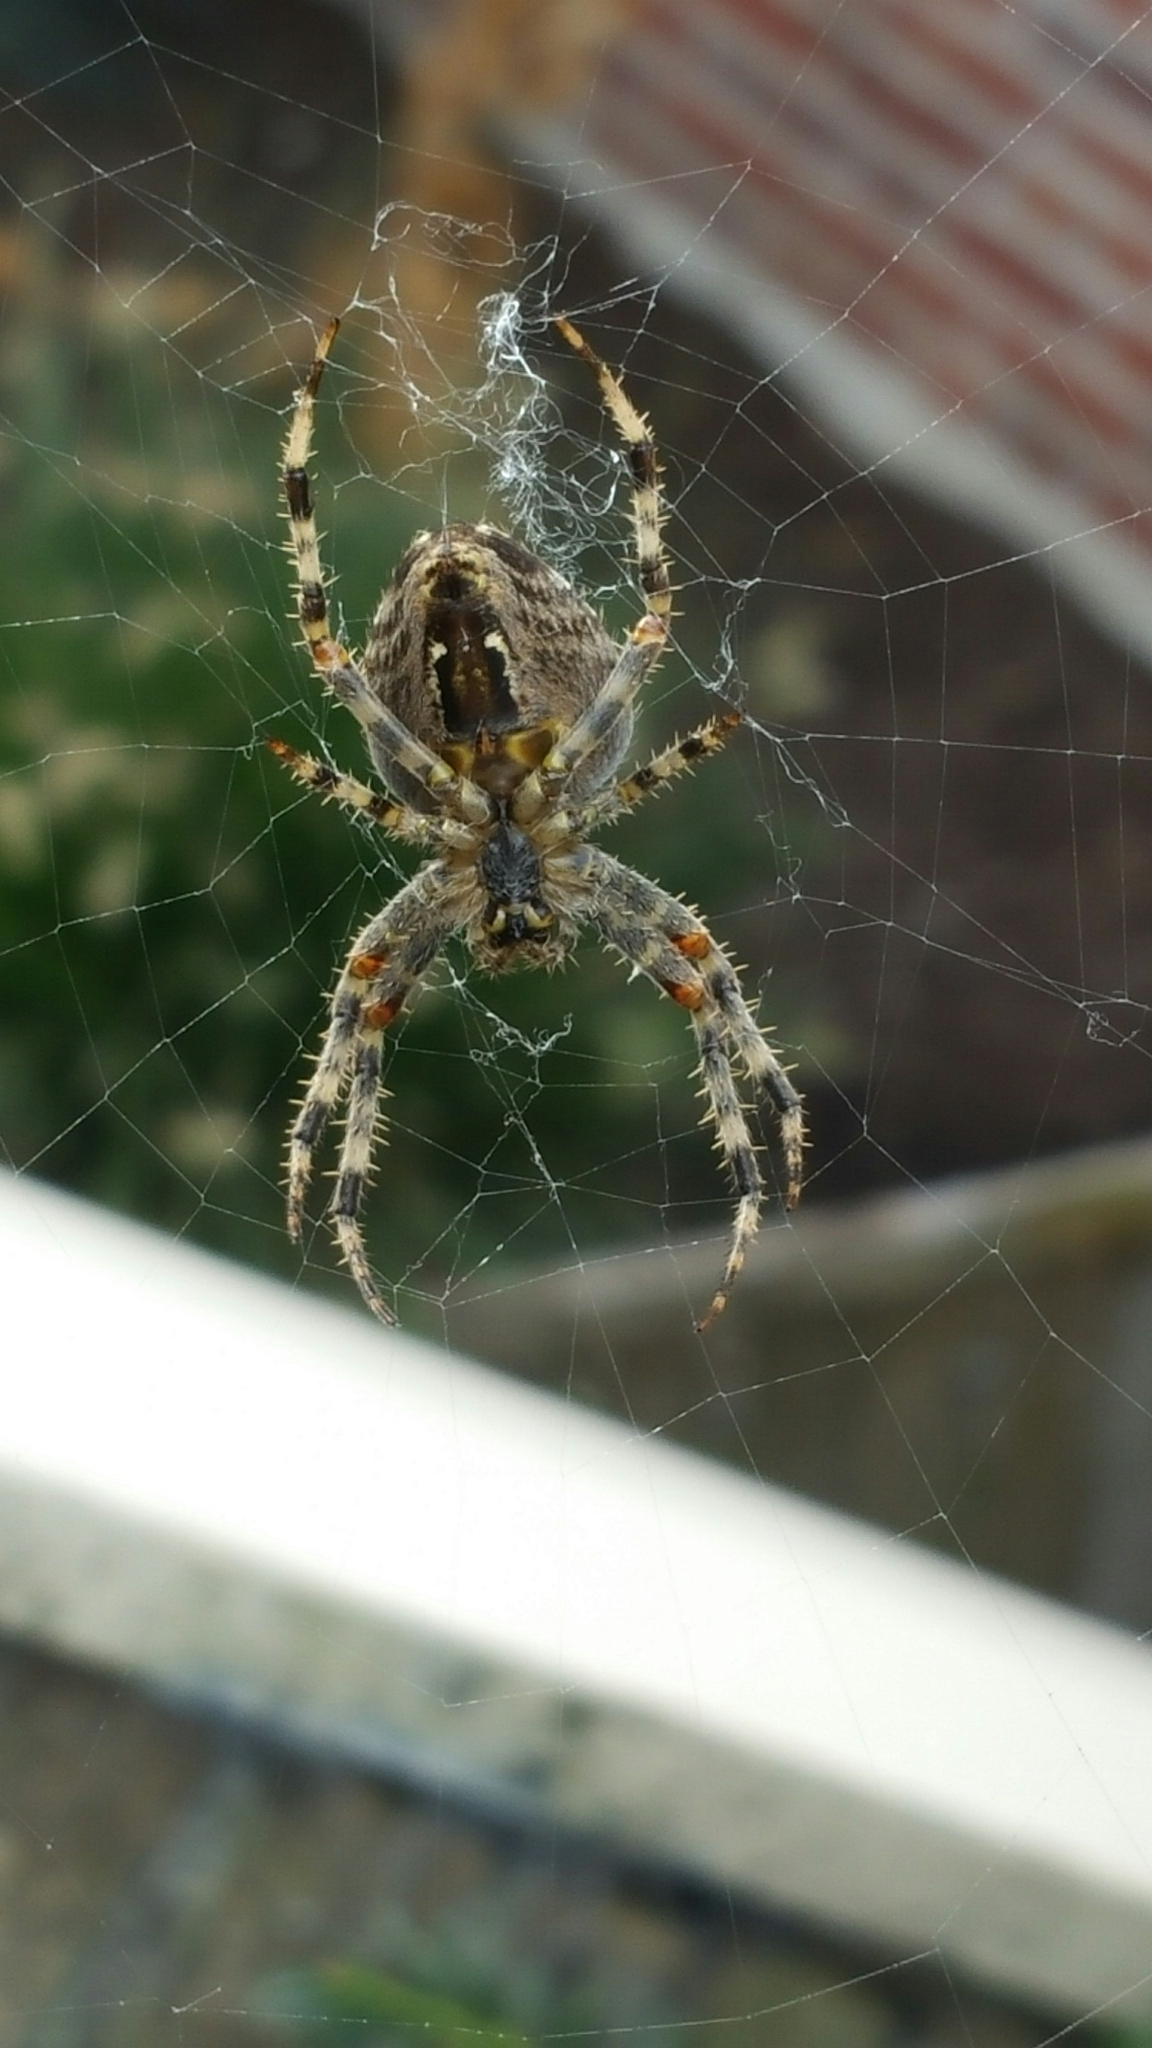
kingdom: Animalia
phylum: Arthropoda
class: Arachnida
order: Araneae
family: Araneidae
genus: Araneus
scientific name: Araneus diadematus
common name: Cross orbweaver
